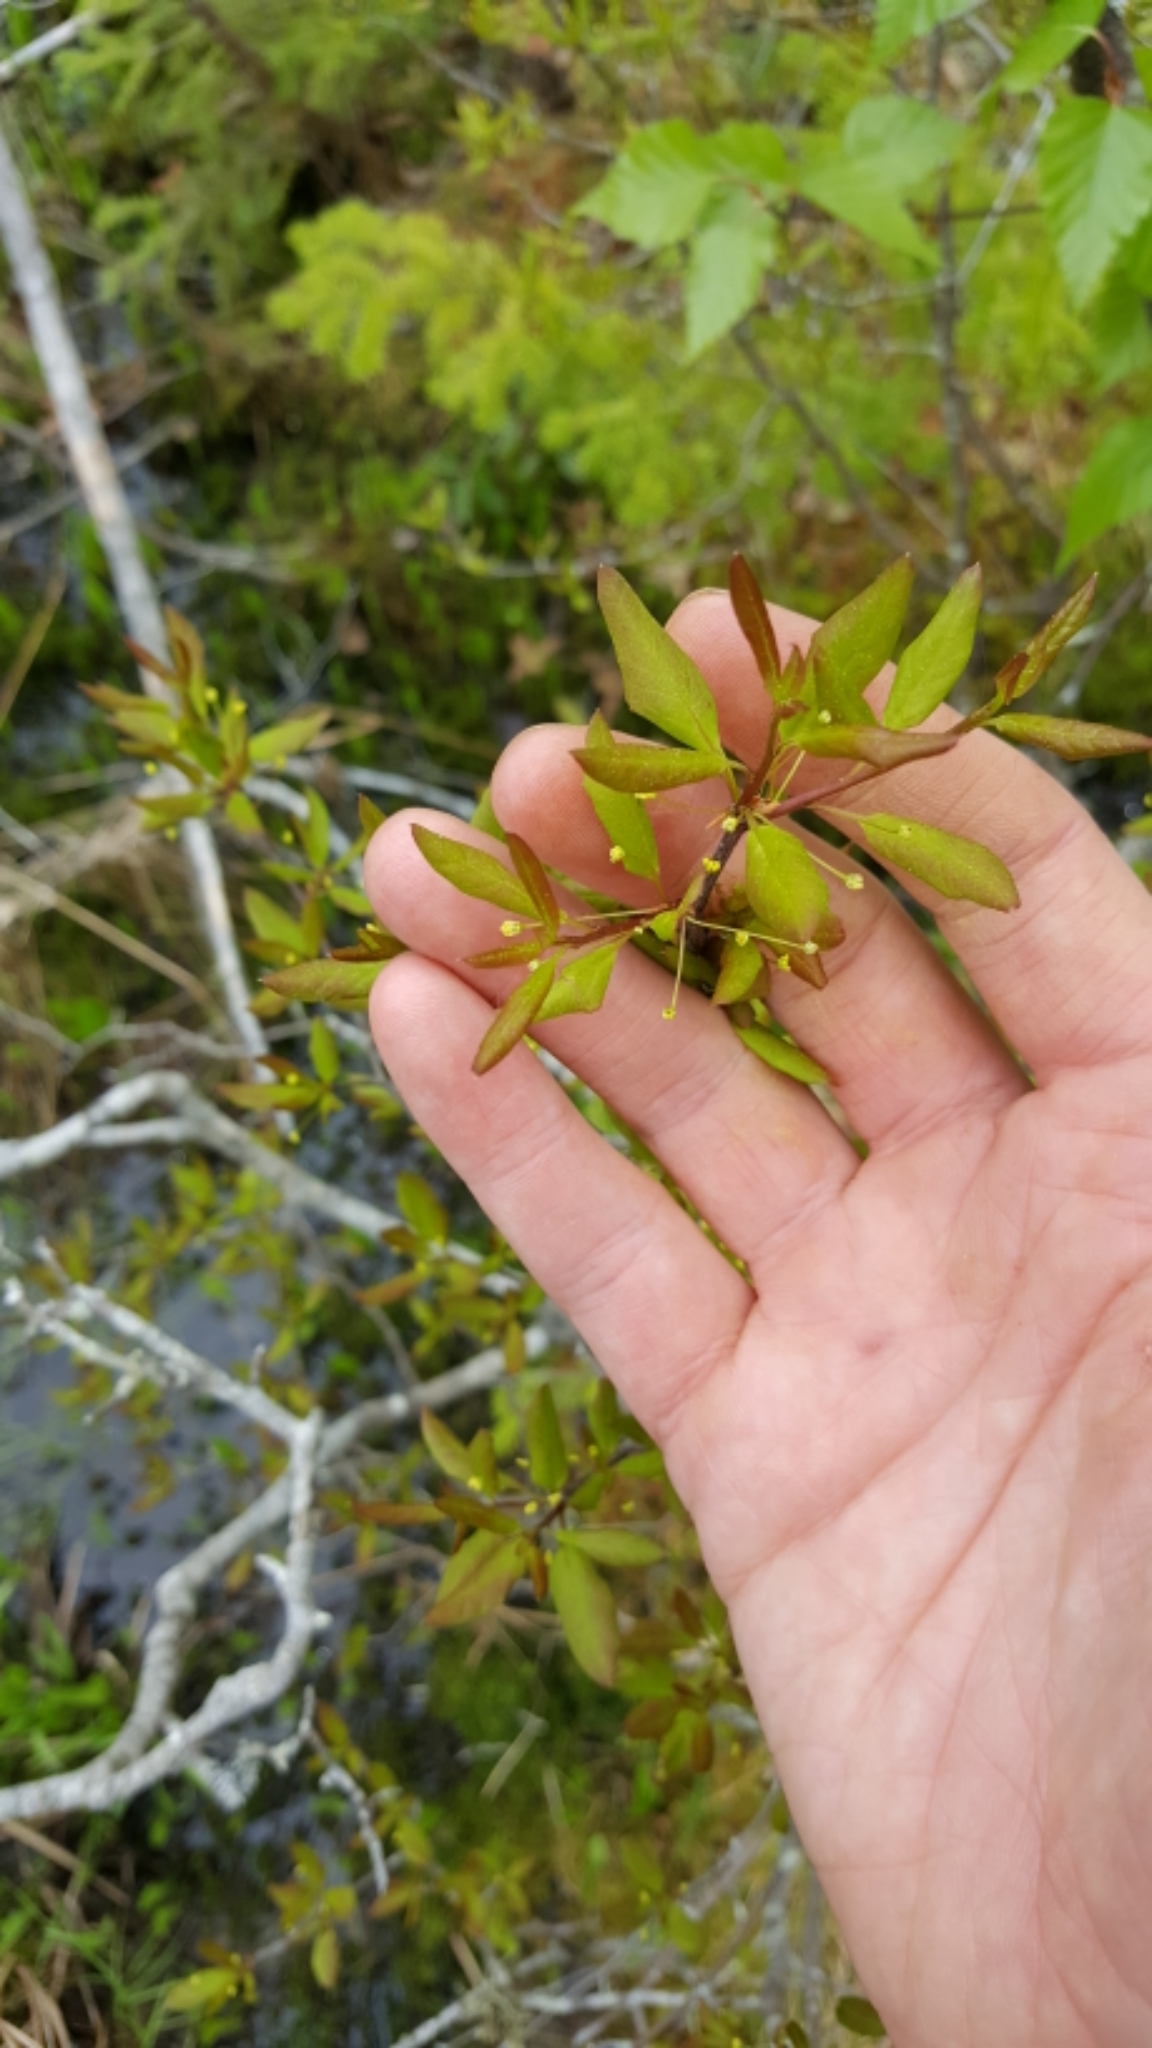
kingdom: Plantae
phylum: Tracheophyta
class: Magnoliopsida
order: Aquifoliales
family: Aquifoliaceae
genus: Ilex
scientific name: Ilex mucronata
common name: Catberry
